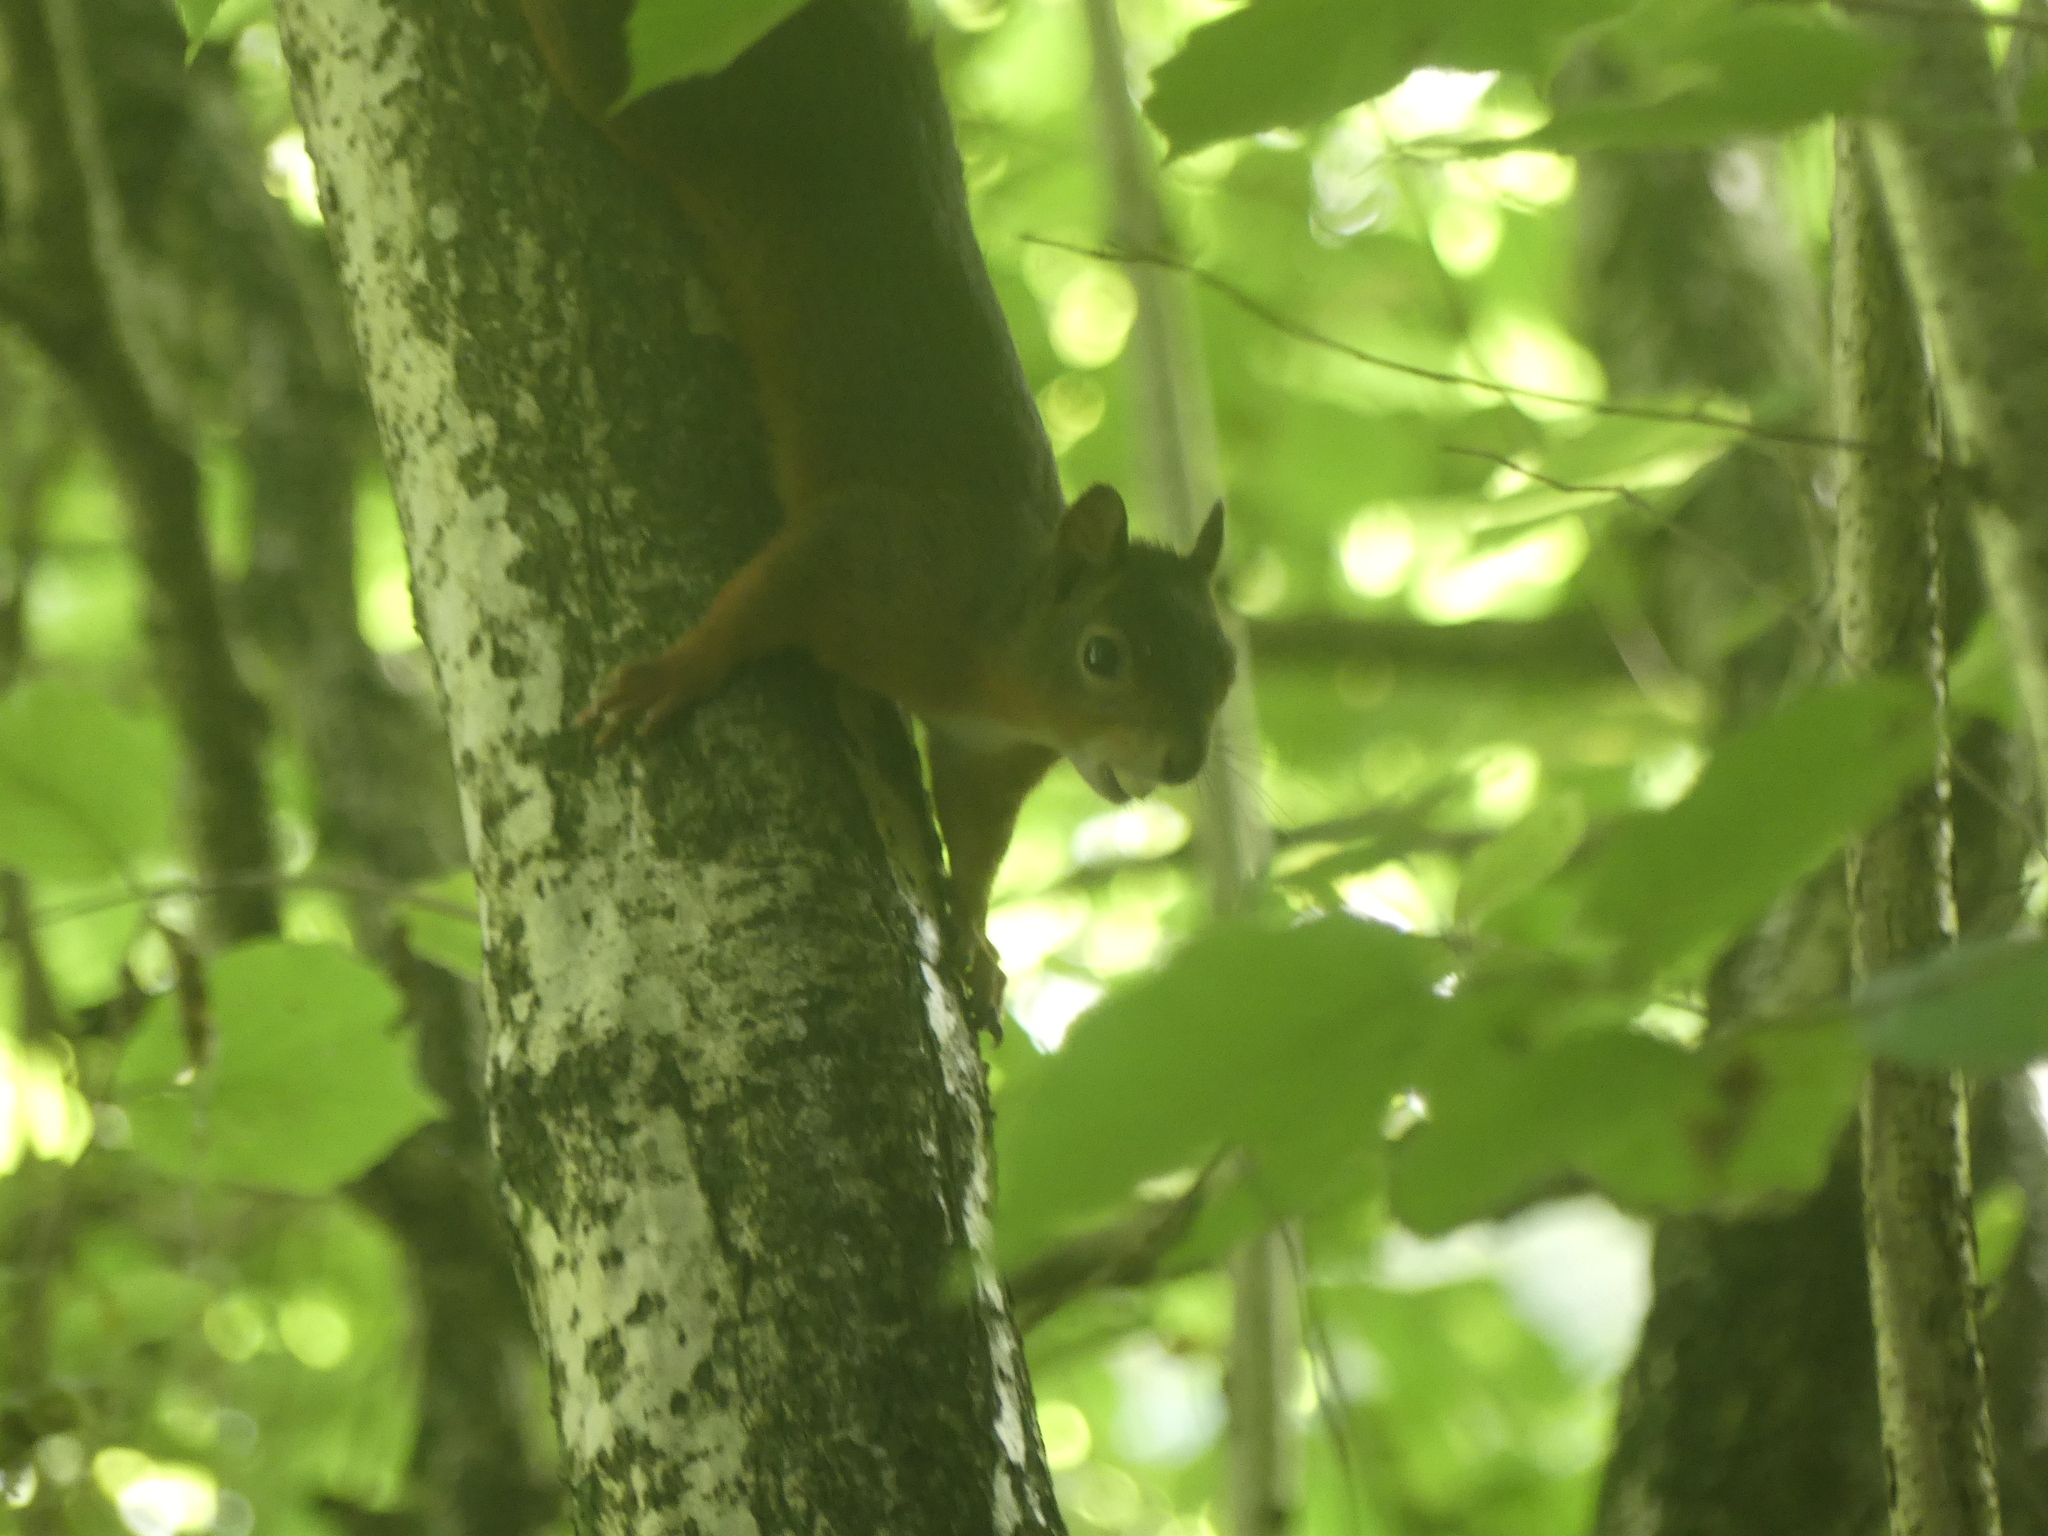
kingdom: Animalia
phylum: Chordata
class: Mammalia
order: Rodentia
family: Sciuridae
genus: Sciurus
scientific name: Sciurus vulgaris
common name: Eurasian red squirrel
